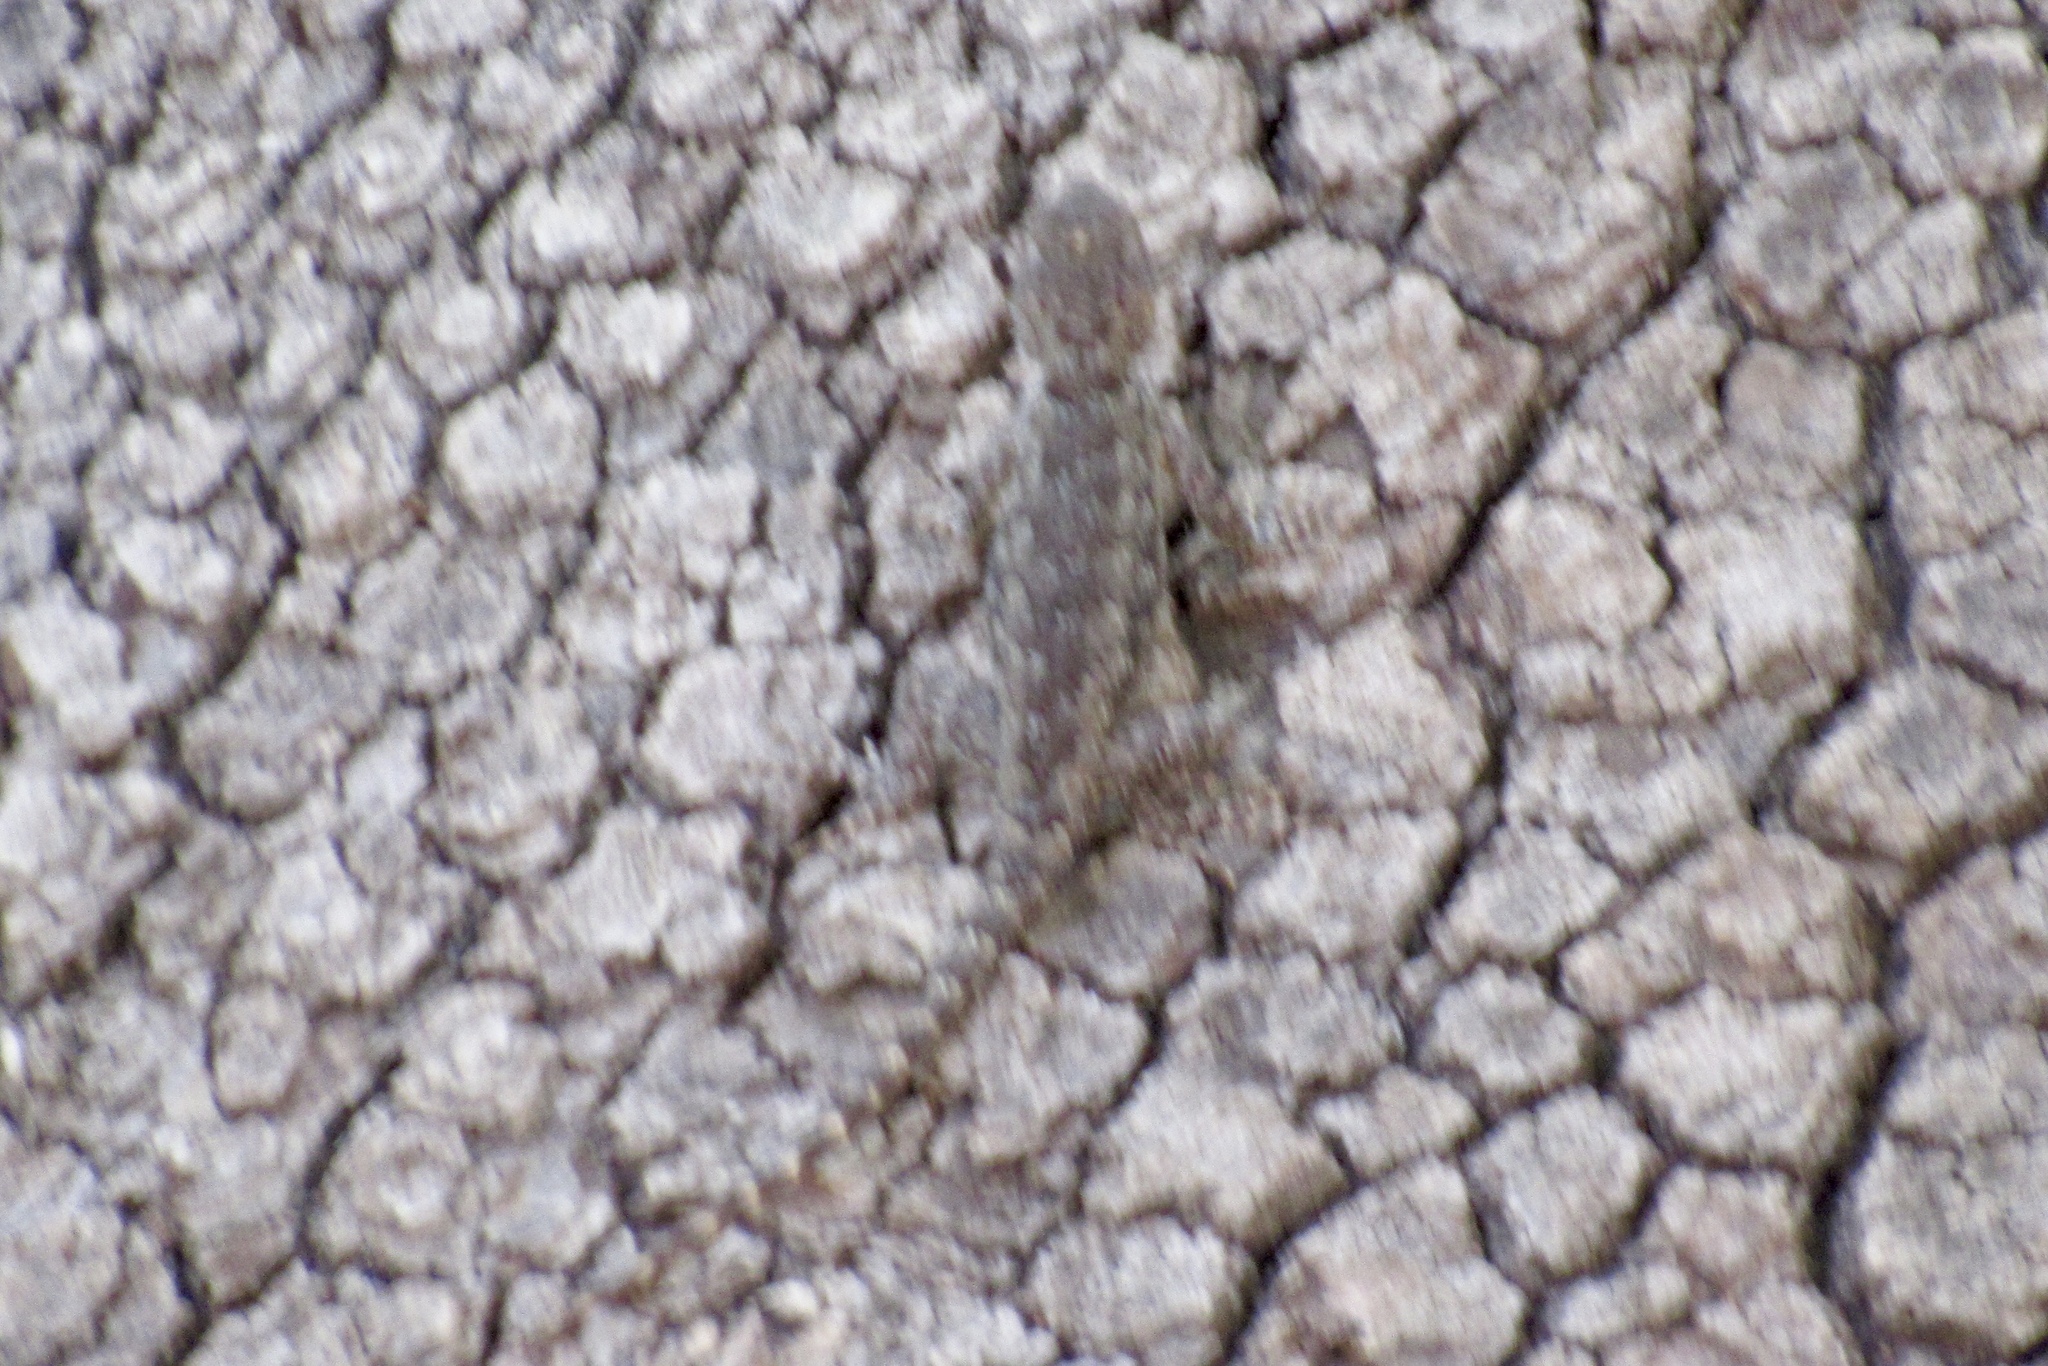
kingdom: Animalia
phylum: Chordata
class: Squamata
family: Phrynosomatidae
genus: Sceloporus
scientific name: Sceloporus cowlesi
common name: White sands prairie lizard
